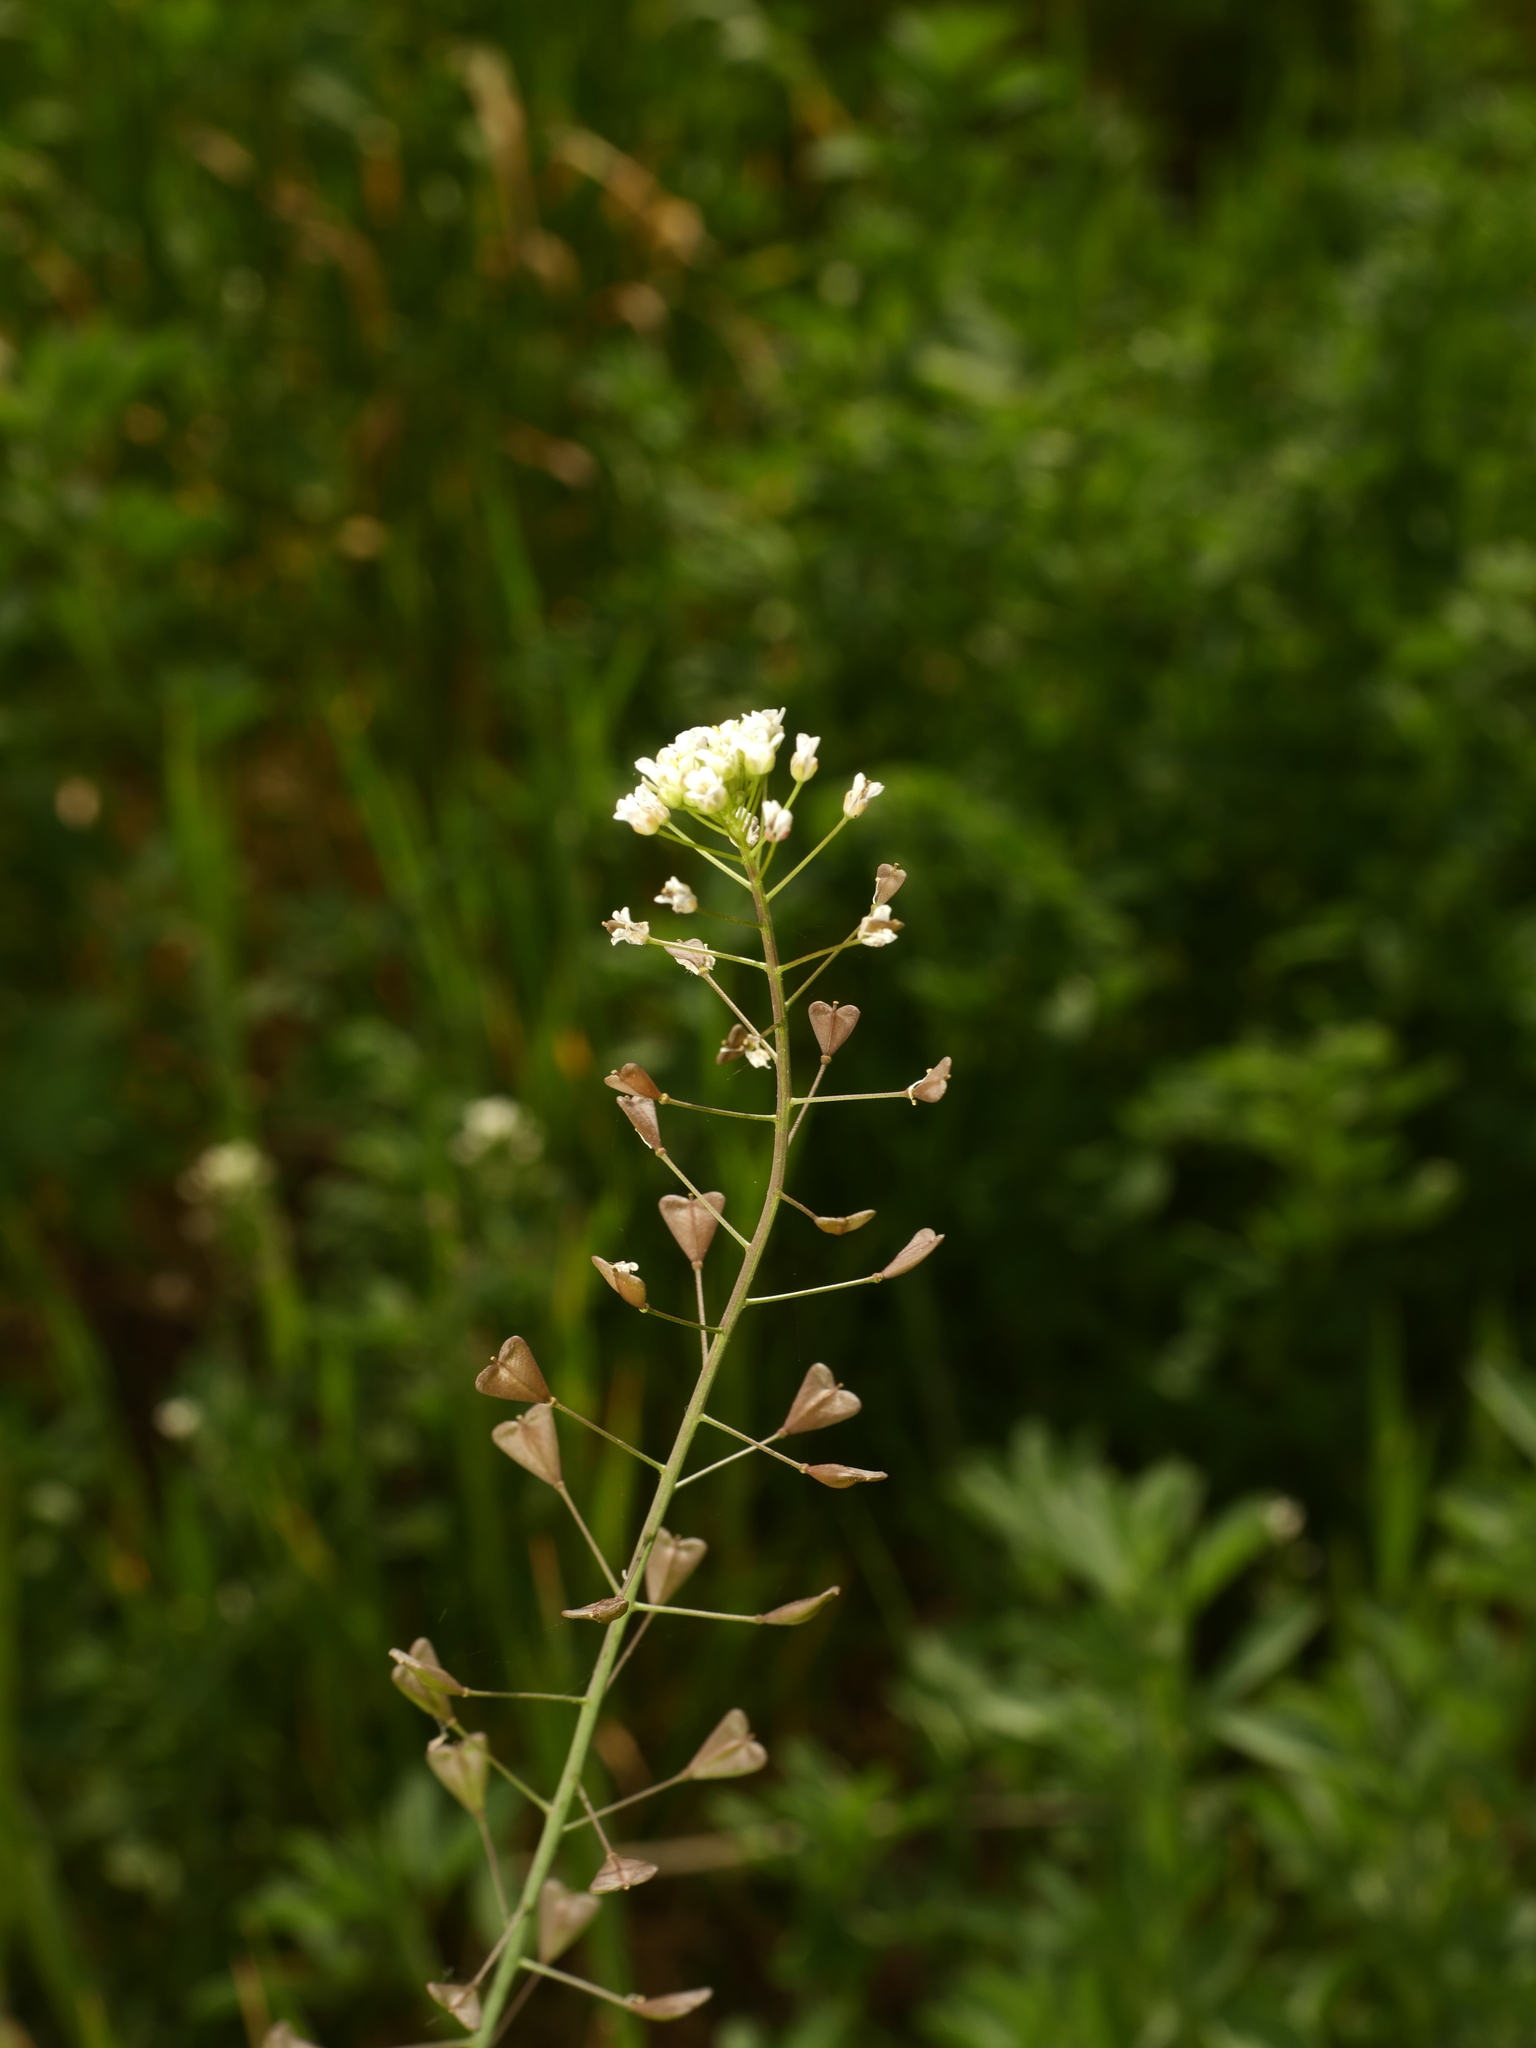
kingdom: Plantae
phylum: Tracheophyta
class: Magnoliopsida
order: Brassicales
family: Brassicaceae
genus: Capsella
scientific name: Capsella bursa-pastoris
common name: Shepherd's purse
